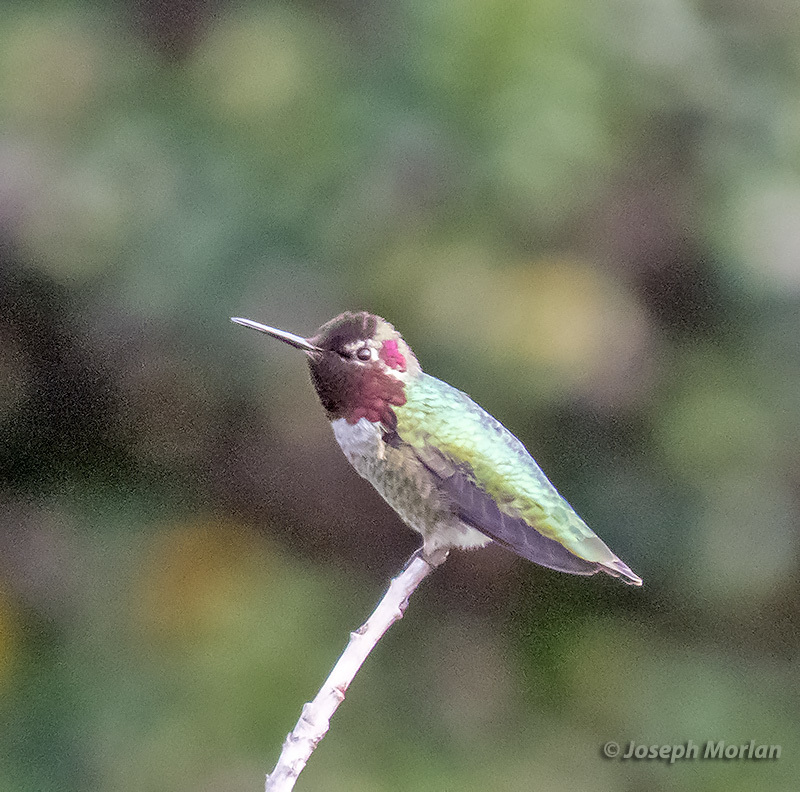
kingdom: Animalia
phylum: Chordata
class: Aves
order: Apodiformes
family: Trochilidae
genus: Calypte
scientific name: Calypte anna
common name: Anna's hummingbird
